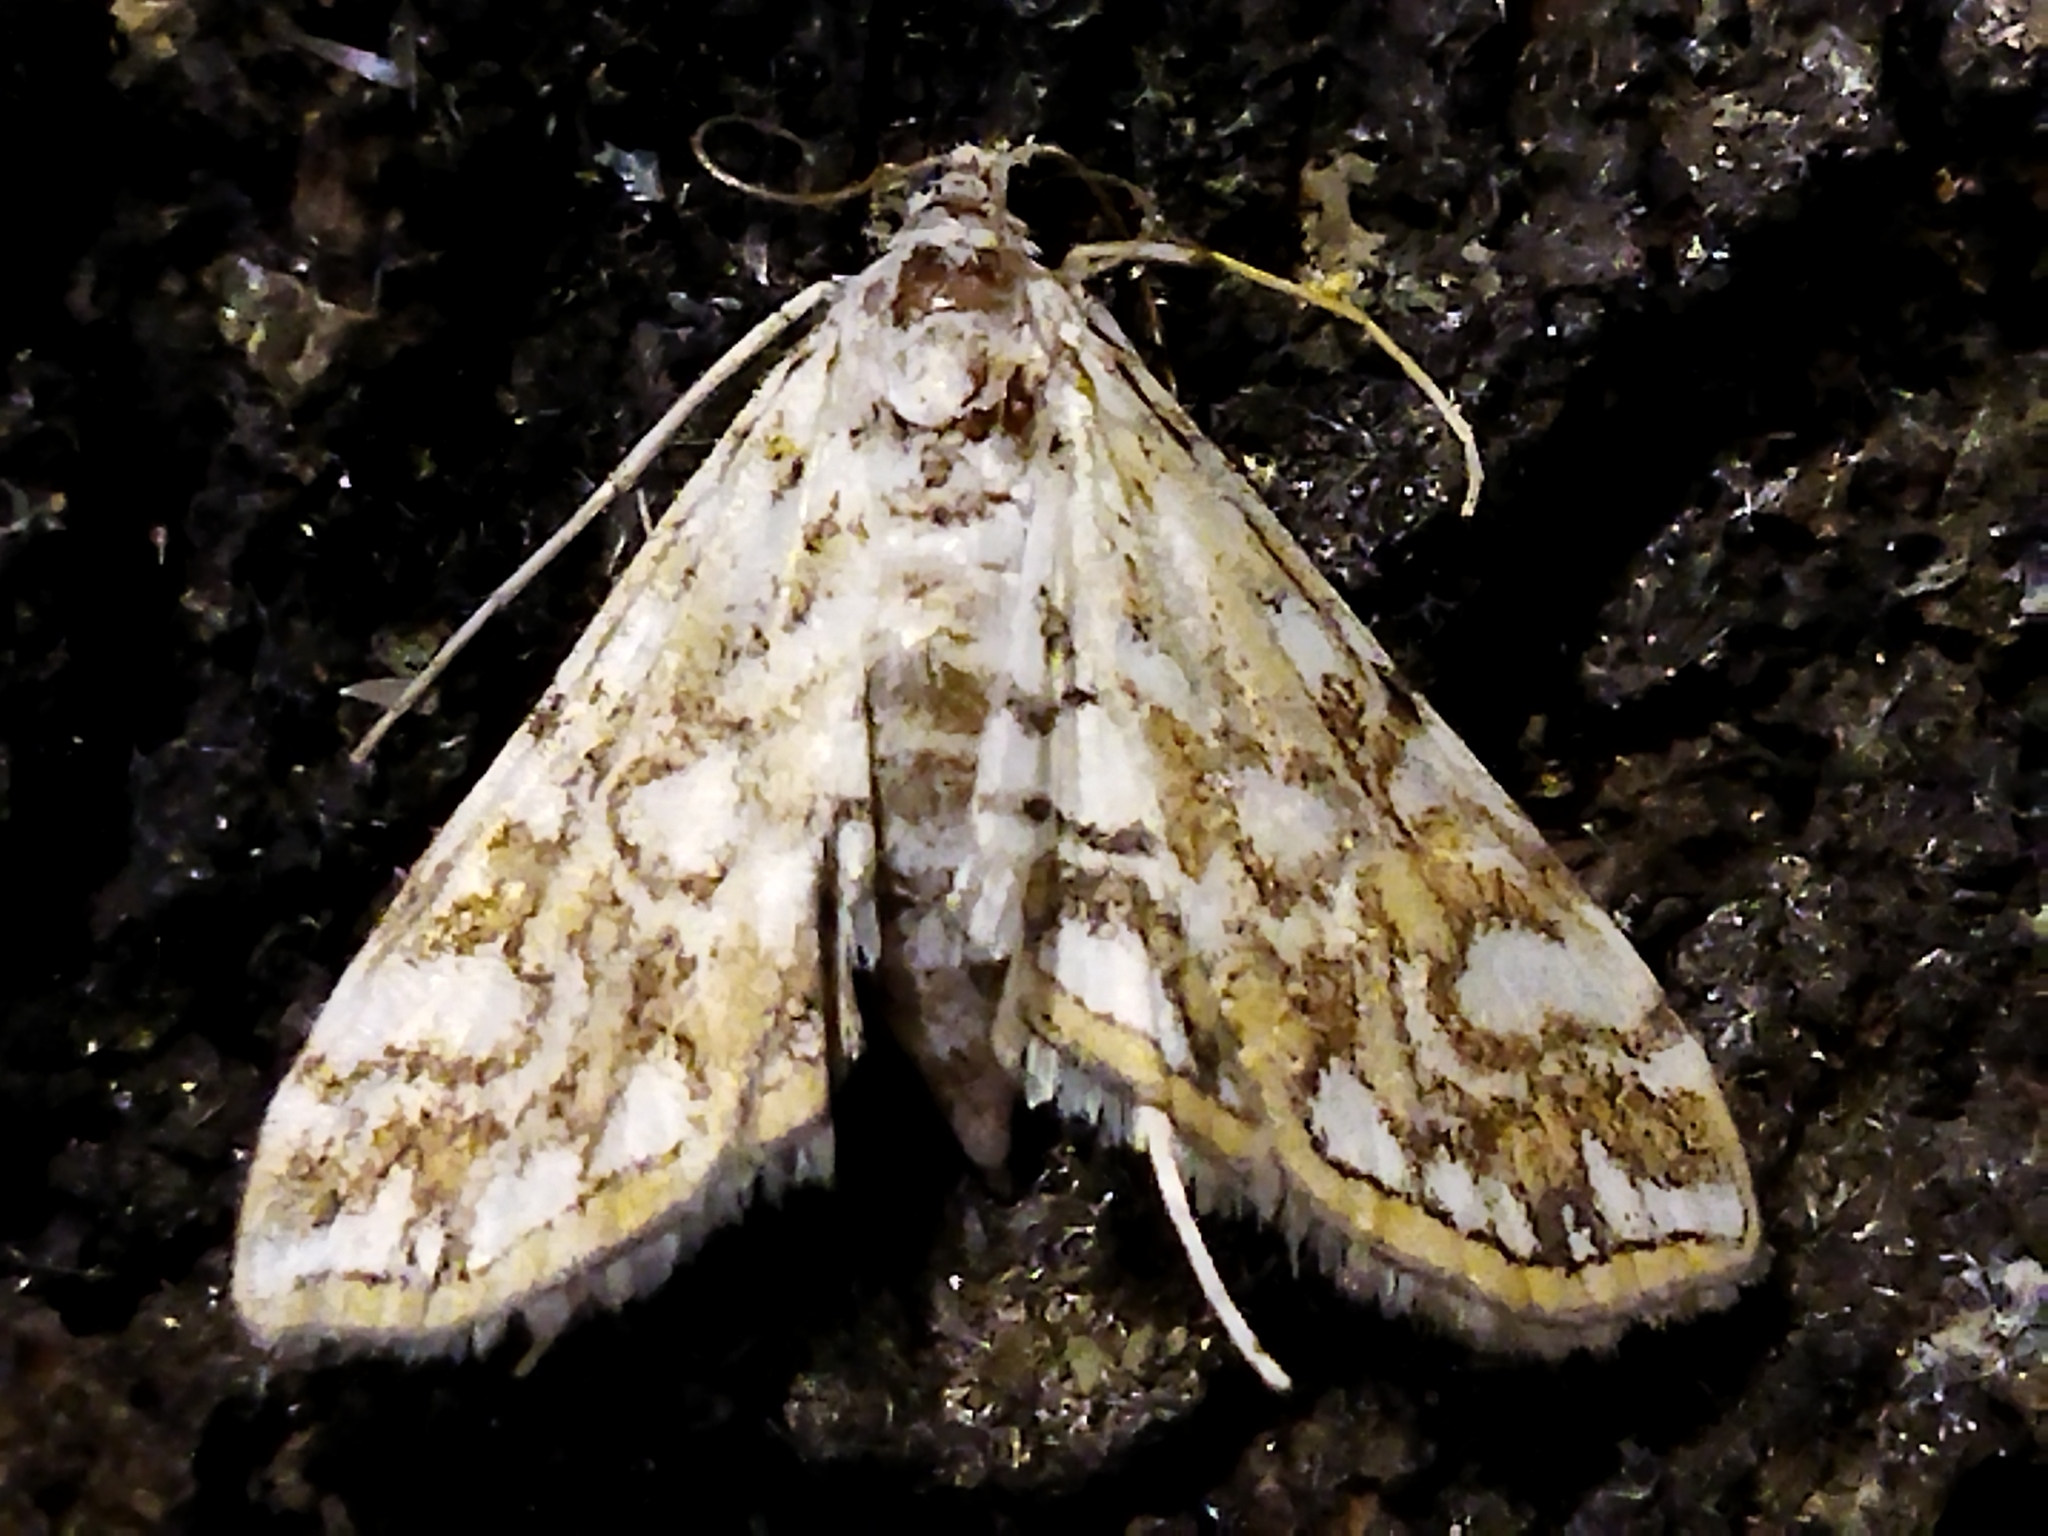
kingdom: Animalia
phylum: Arthropoda
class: Insecta
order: Lepidoptera
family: Crambidae
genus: Elophila
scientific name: Elophila nymphaeata
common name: Brown china-mark
